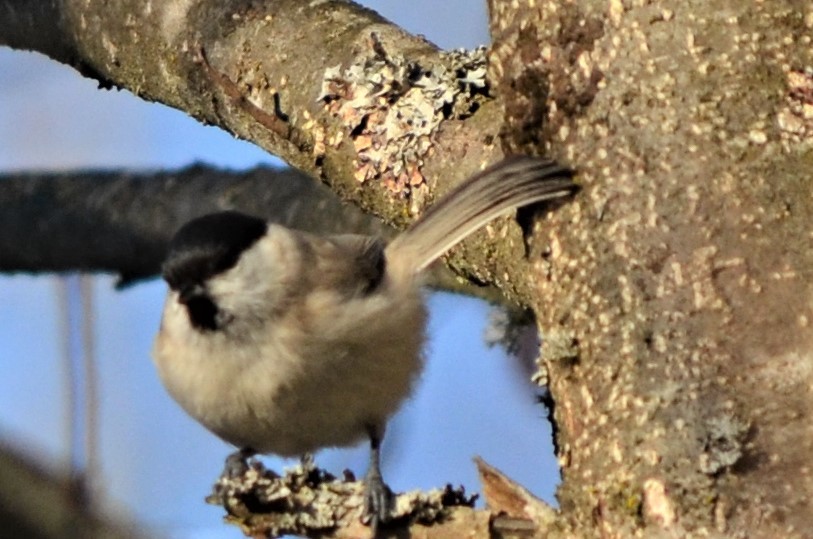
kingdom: Animalia
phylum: Chordata
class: Aves
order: Passeriformes
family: Paridae
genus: Poecile
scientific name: Poecile palustris
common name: Marsh tit
